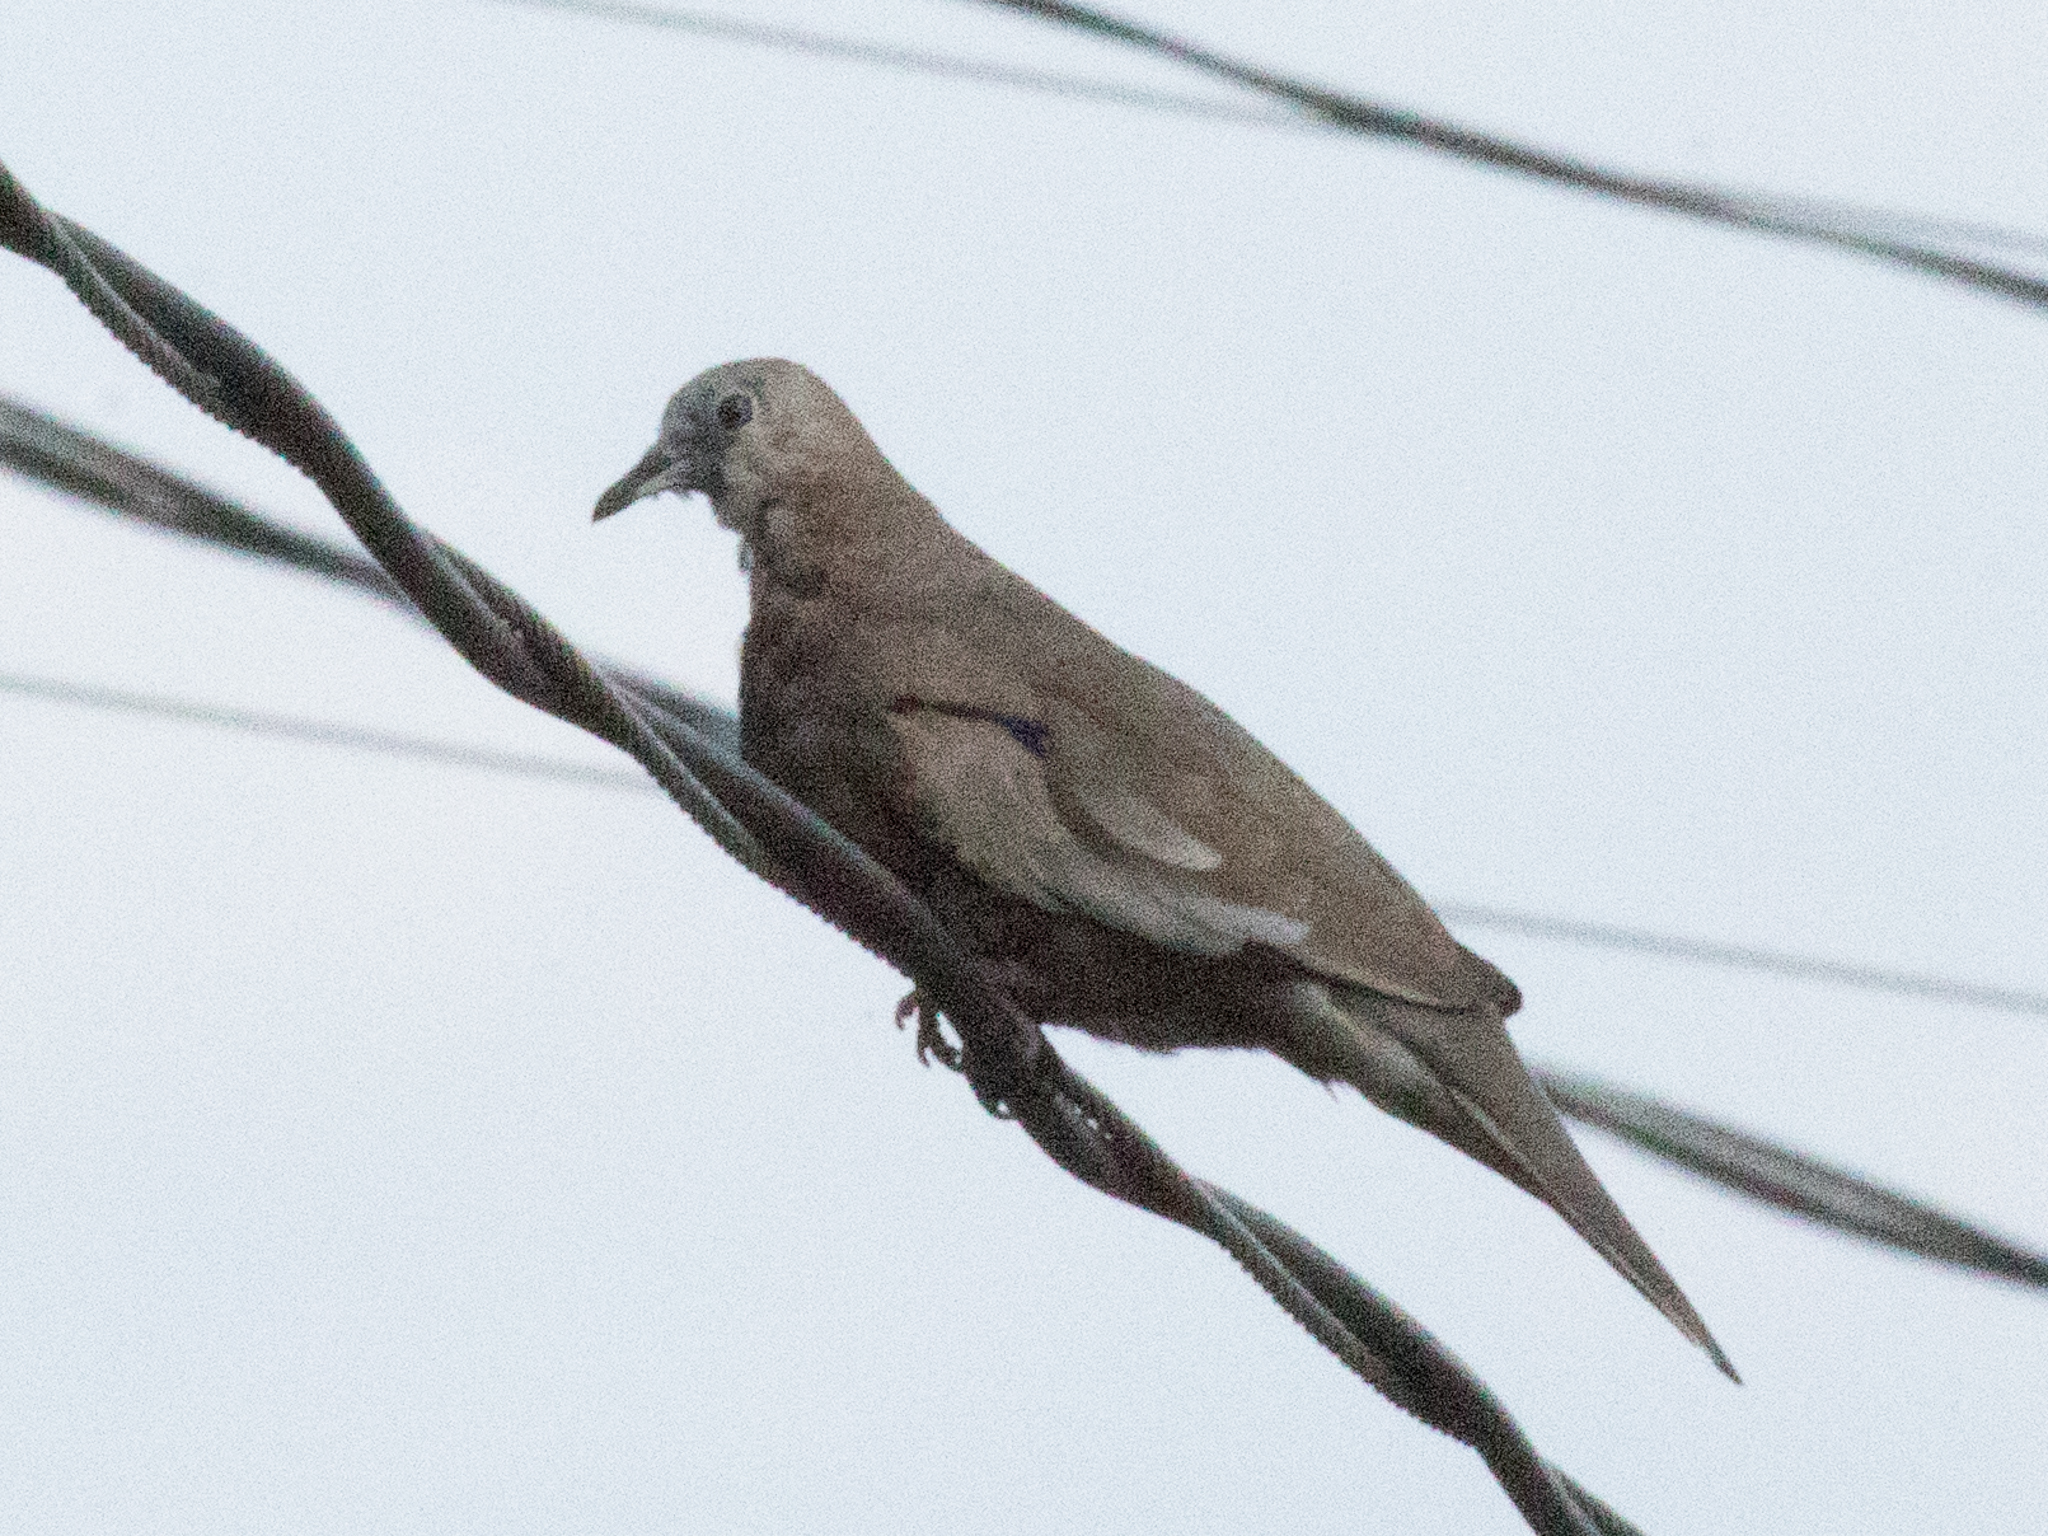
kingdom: Animalia
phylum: Chordata
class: Aves
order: Columbiformes
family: Columbidae
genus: Columbina
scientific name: Columbina picui
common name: Picui ground dove
